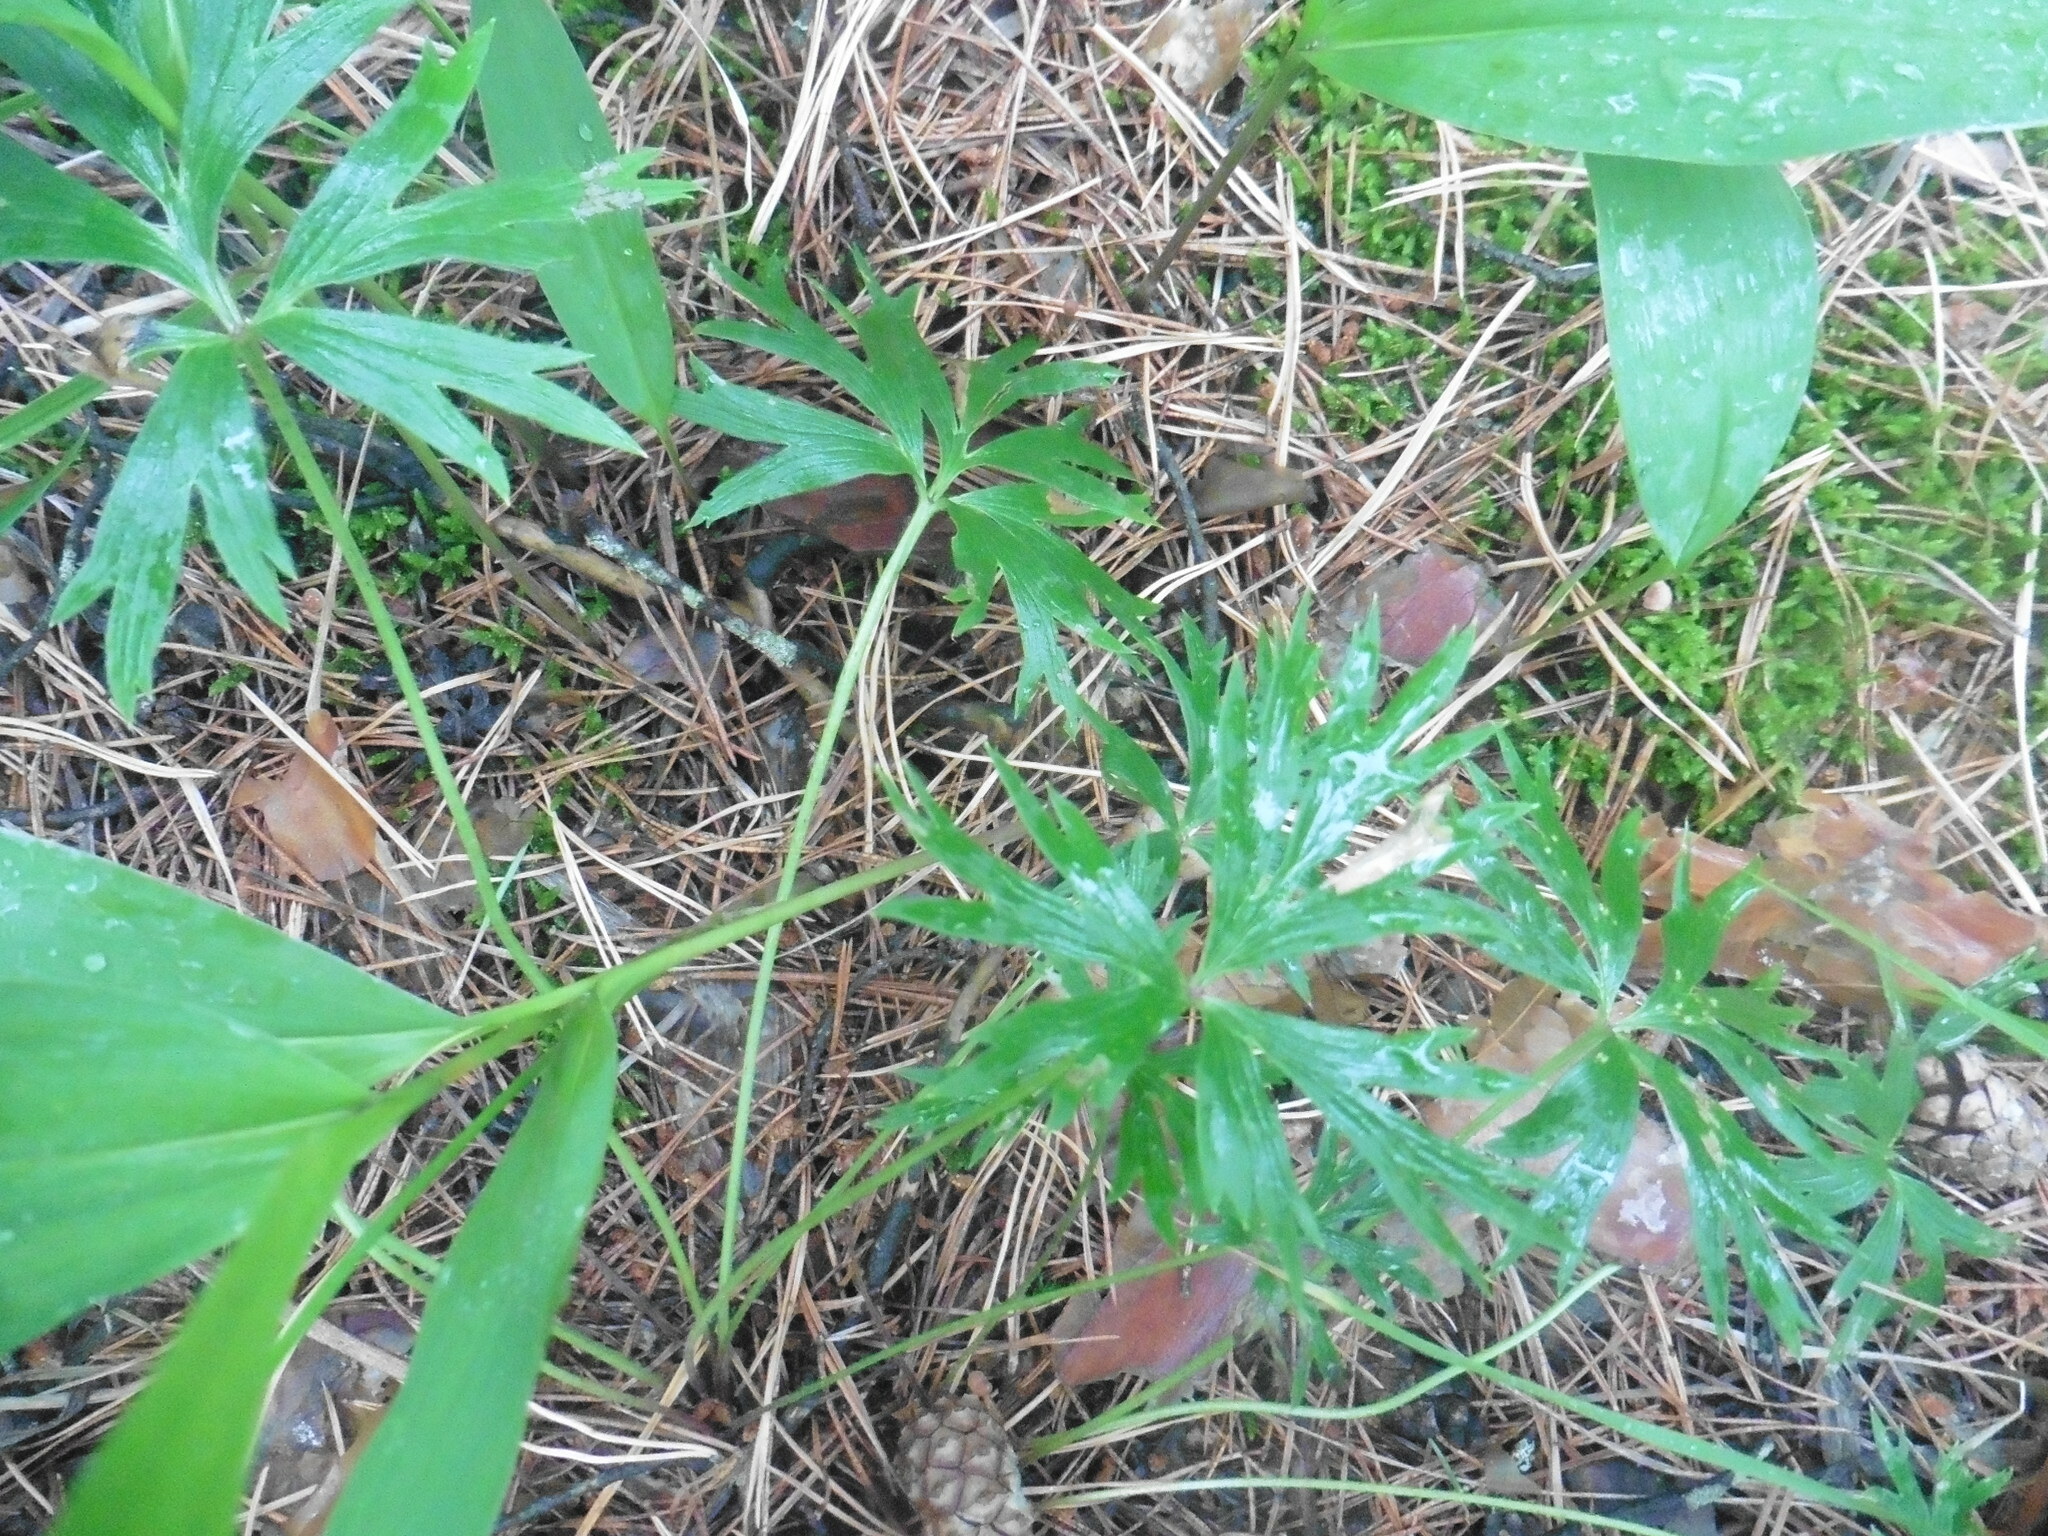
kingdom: Plantae
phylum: Tracheophyta
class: Magnoliopsida
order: Ranunculales
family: Ranunculaceae
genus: Pulsatilla
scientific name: Pulsatilla patens
